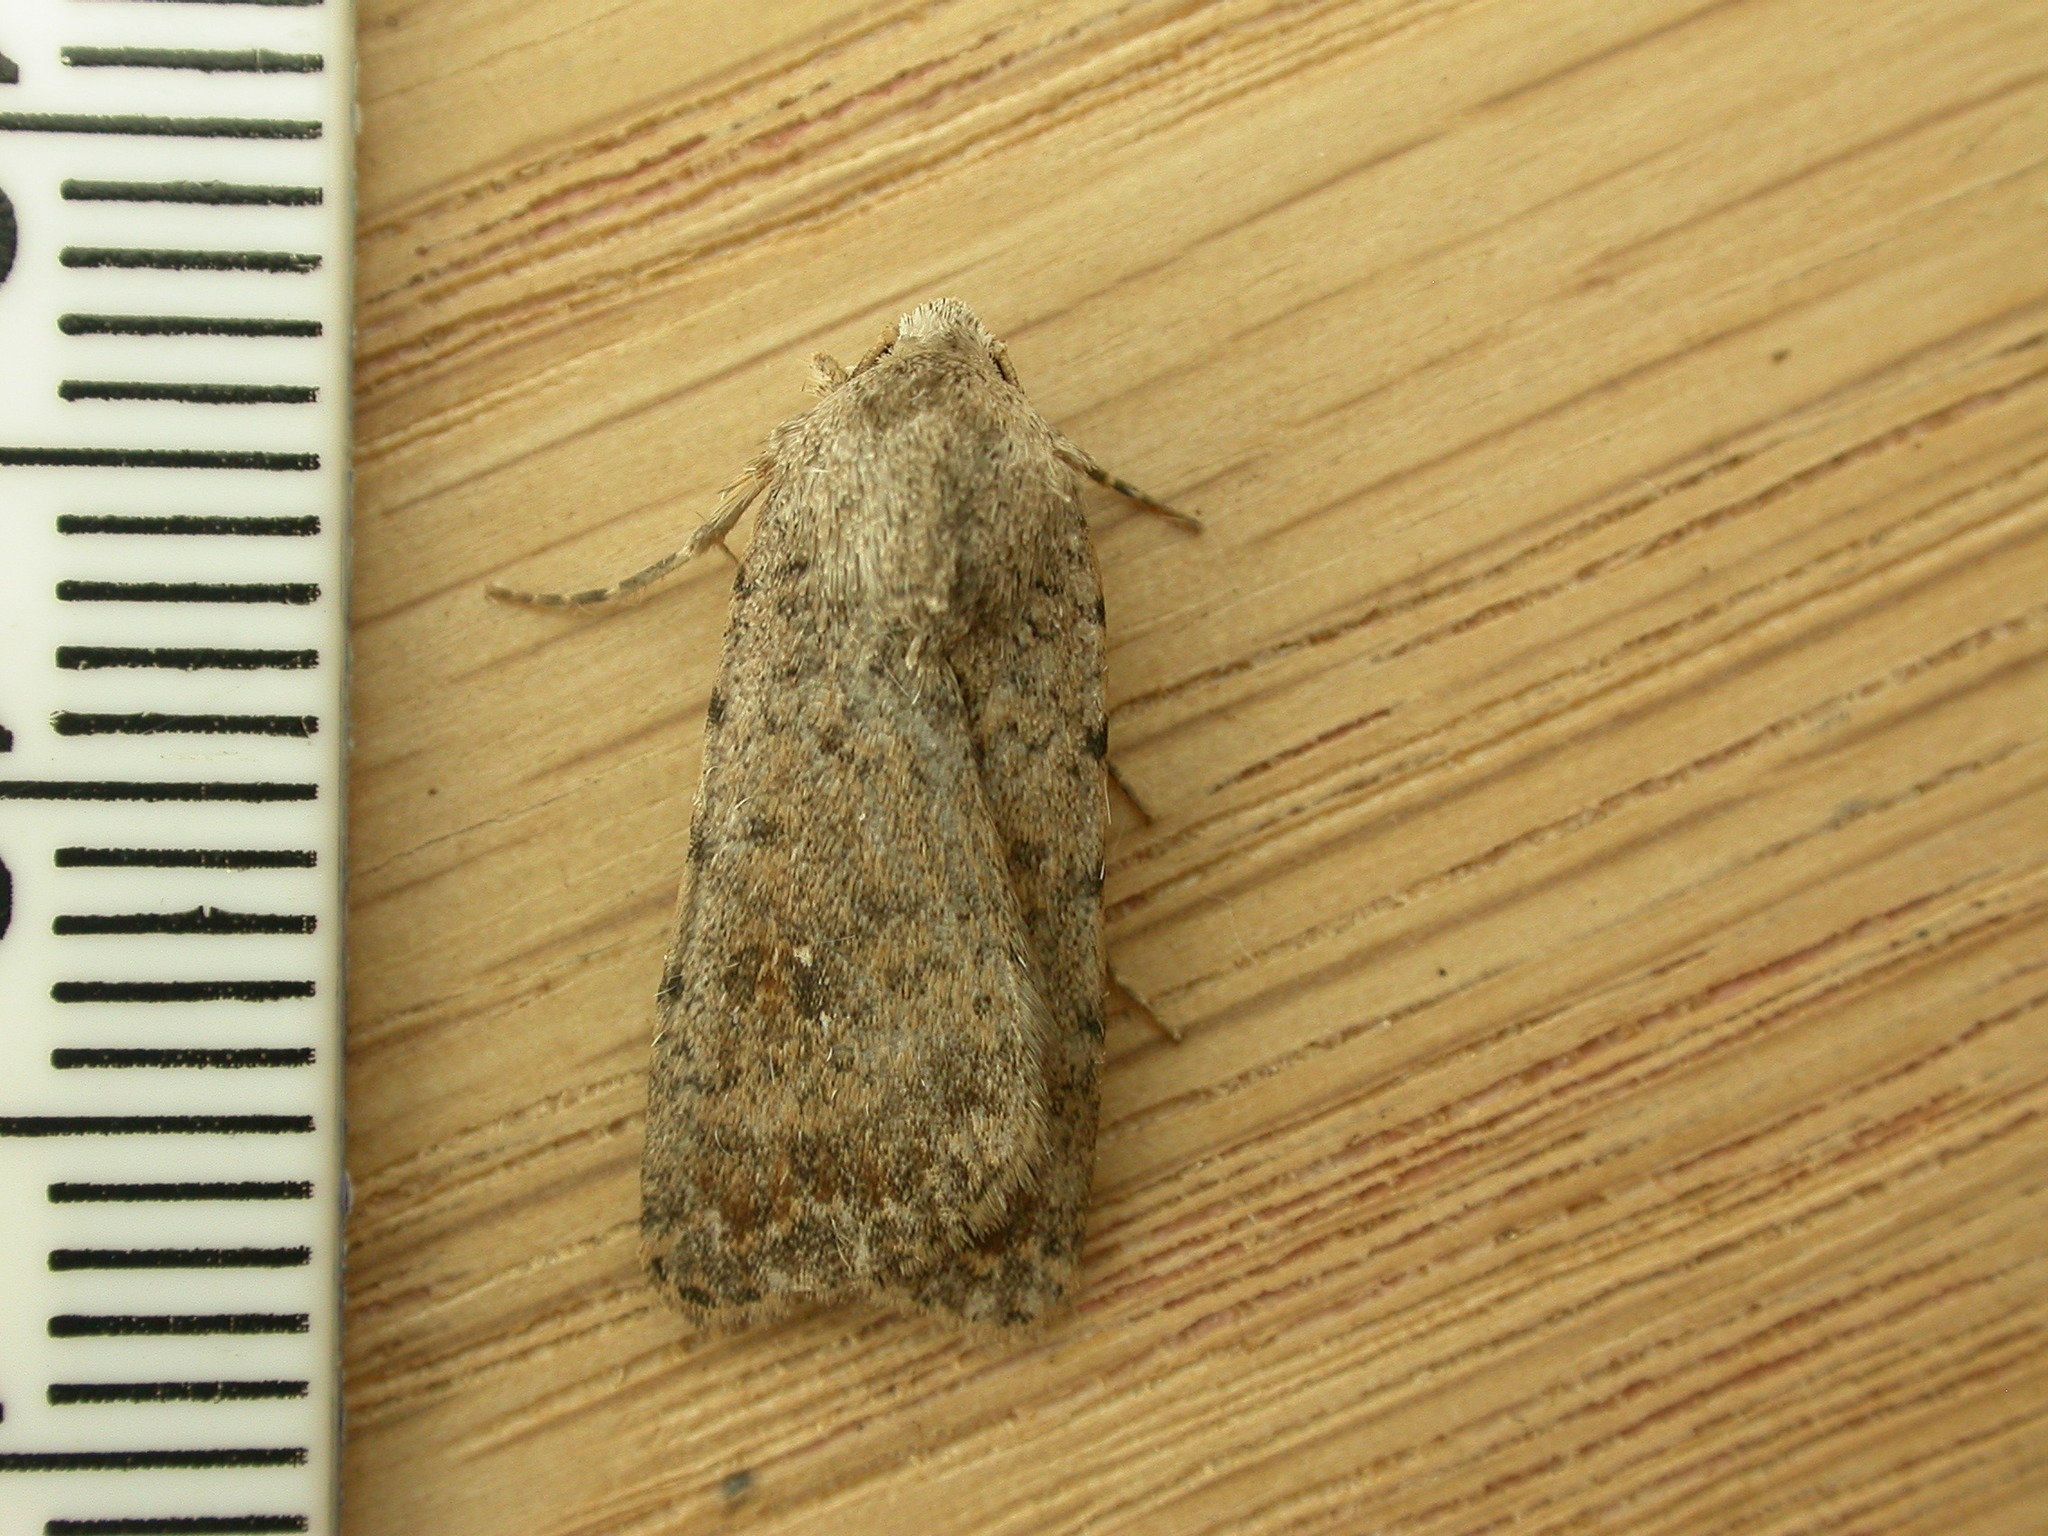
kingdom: Animalia
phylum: Arthropoda
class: Insecta
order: Lepidoptera
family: Noctuidae
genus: Caradrina
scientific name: Caradrina clavipalpis
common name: Pale mottled willow
